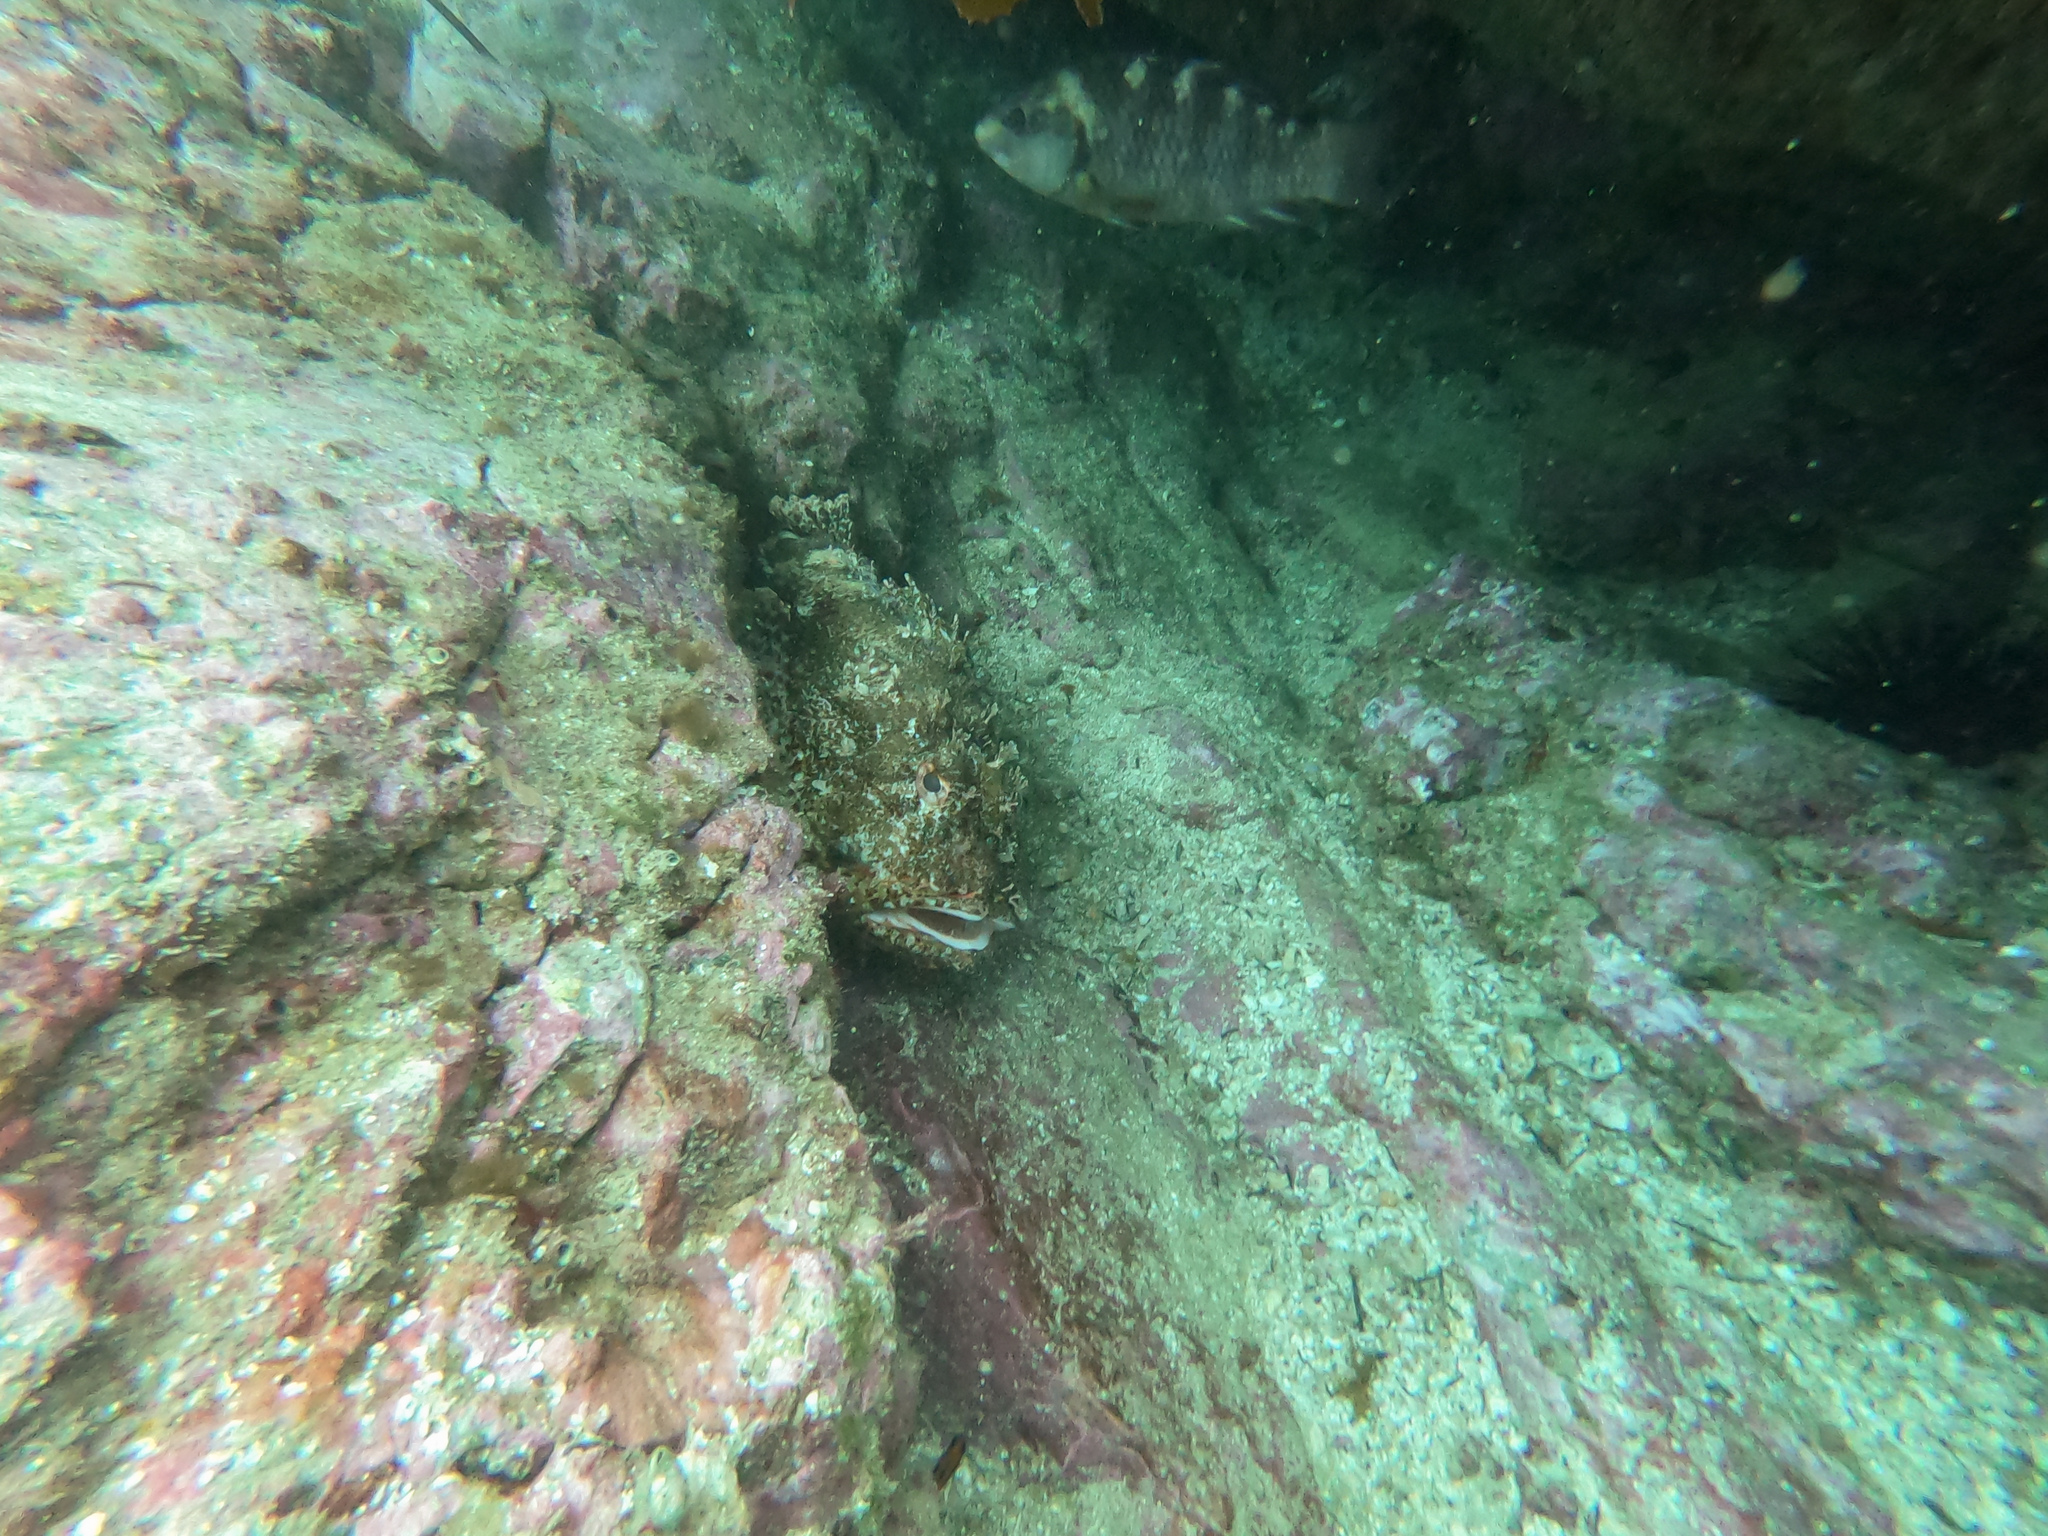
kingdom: Animalia
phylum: Chordata
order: Scorpaeniformes
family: Scorpaenidae
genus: Scorpaena
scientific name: Scorpaena cardinalis
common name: Cardinal scorpionfish
